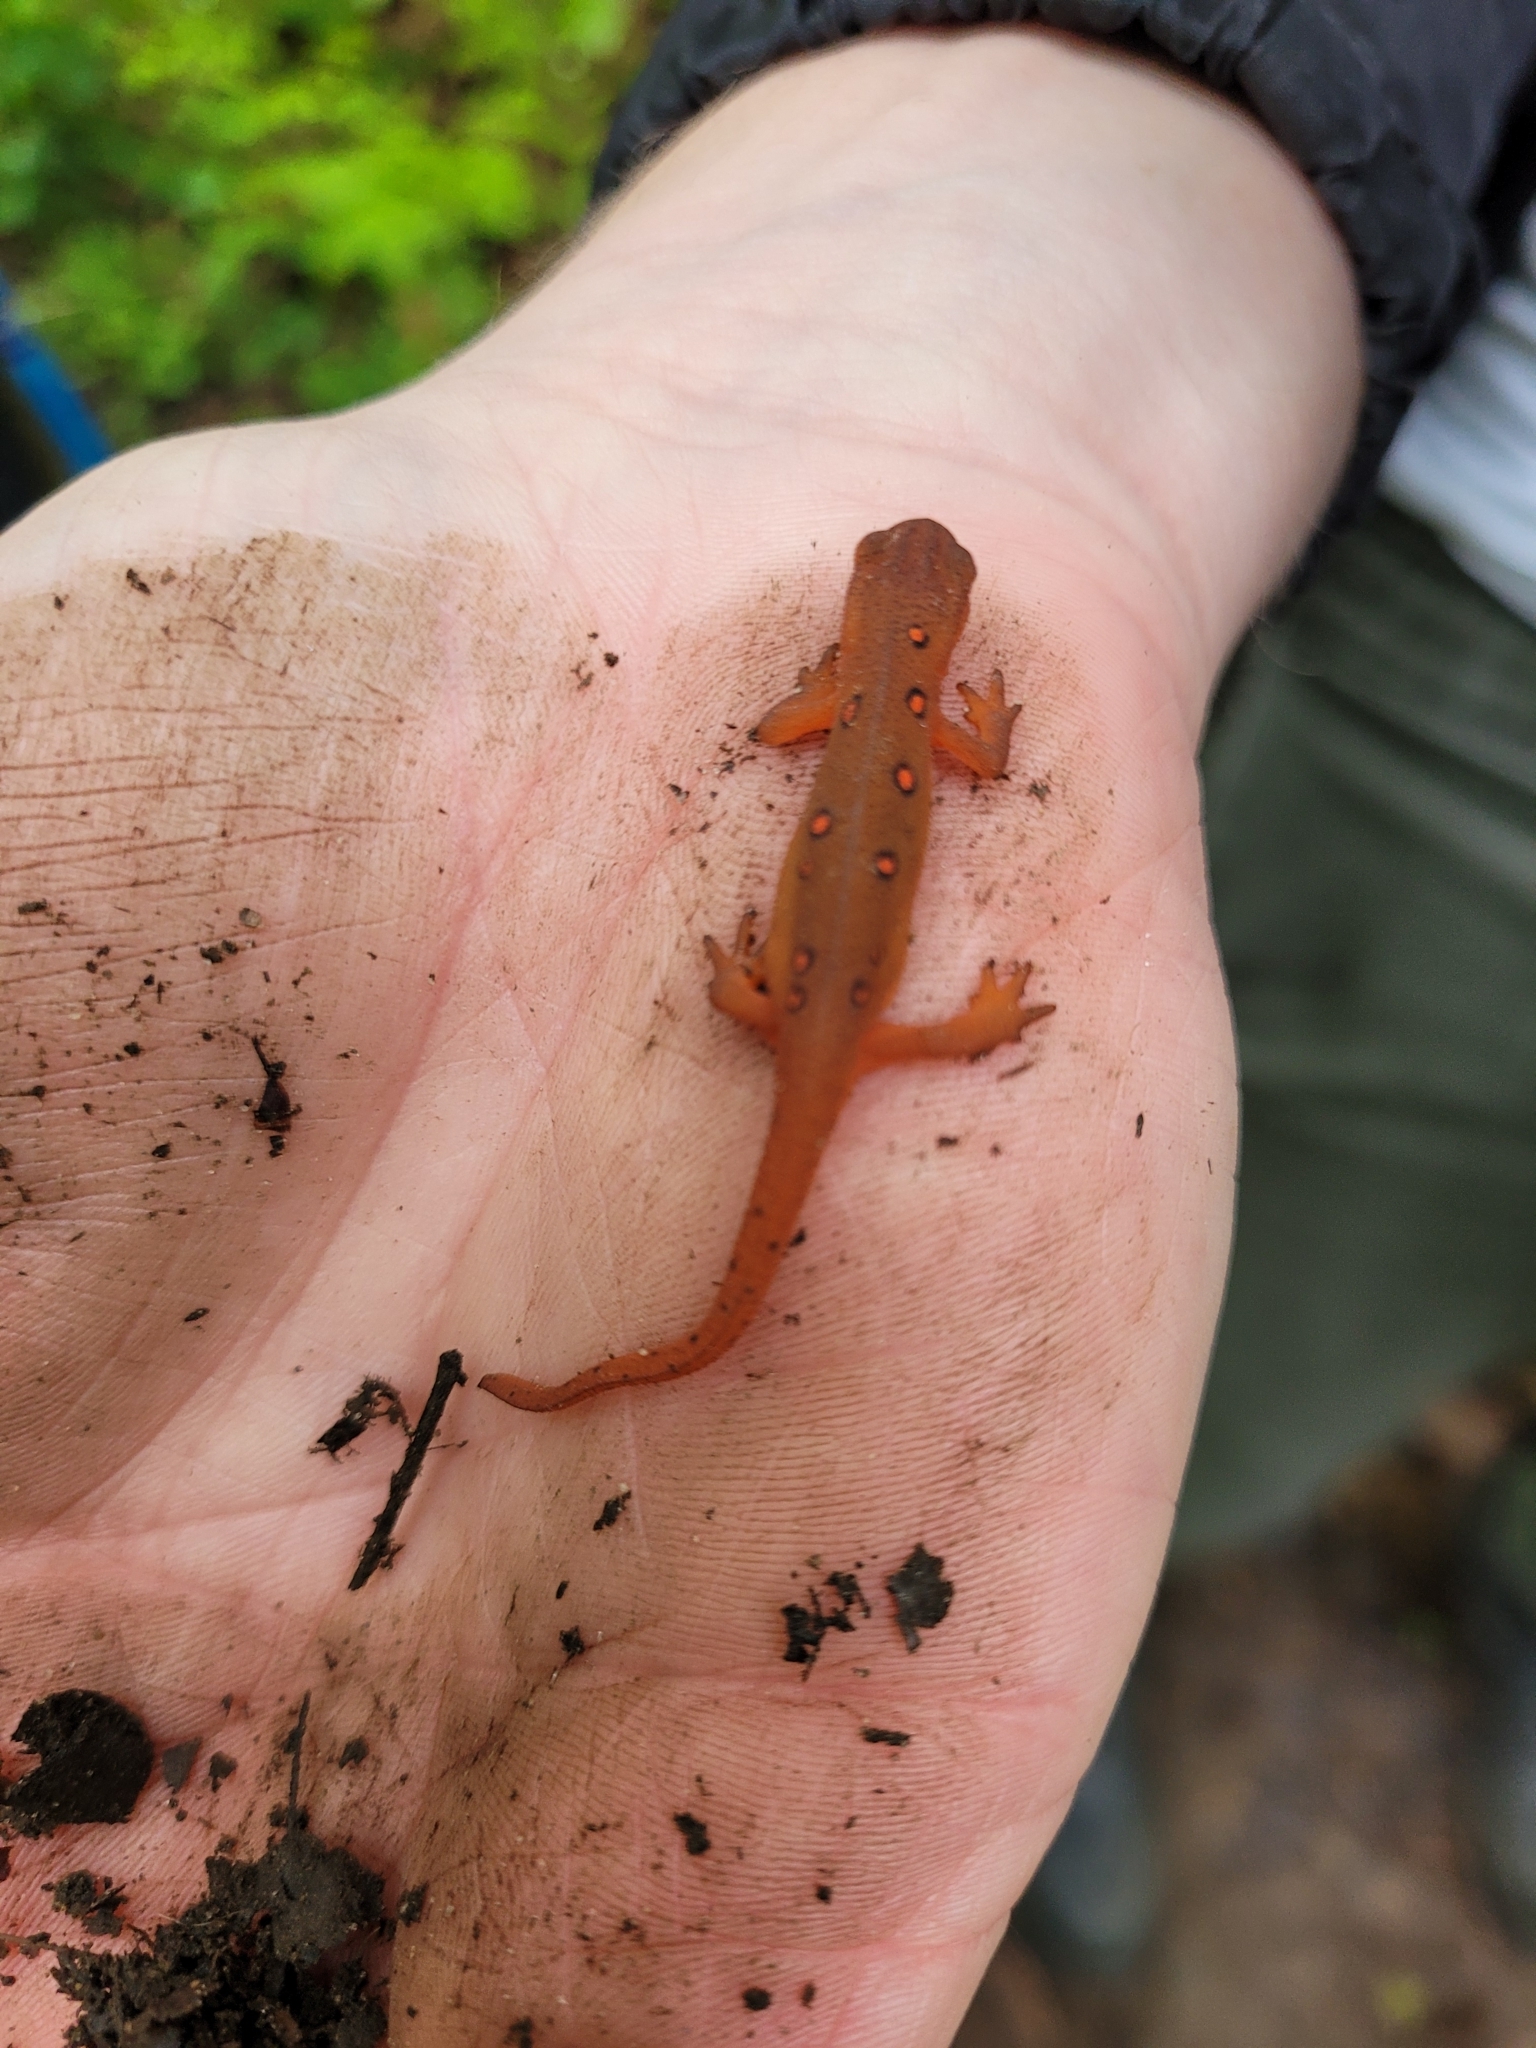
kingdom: Animalia
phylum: Chordata
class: Amphibia
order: Caudata
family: Salamandridae
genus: Notophthalmus
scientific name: Notophthalmus viridescens
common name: Eastern newt
